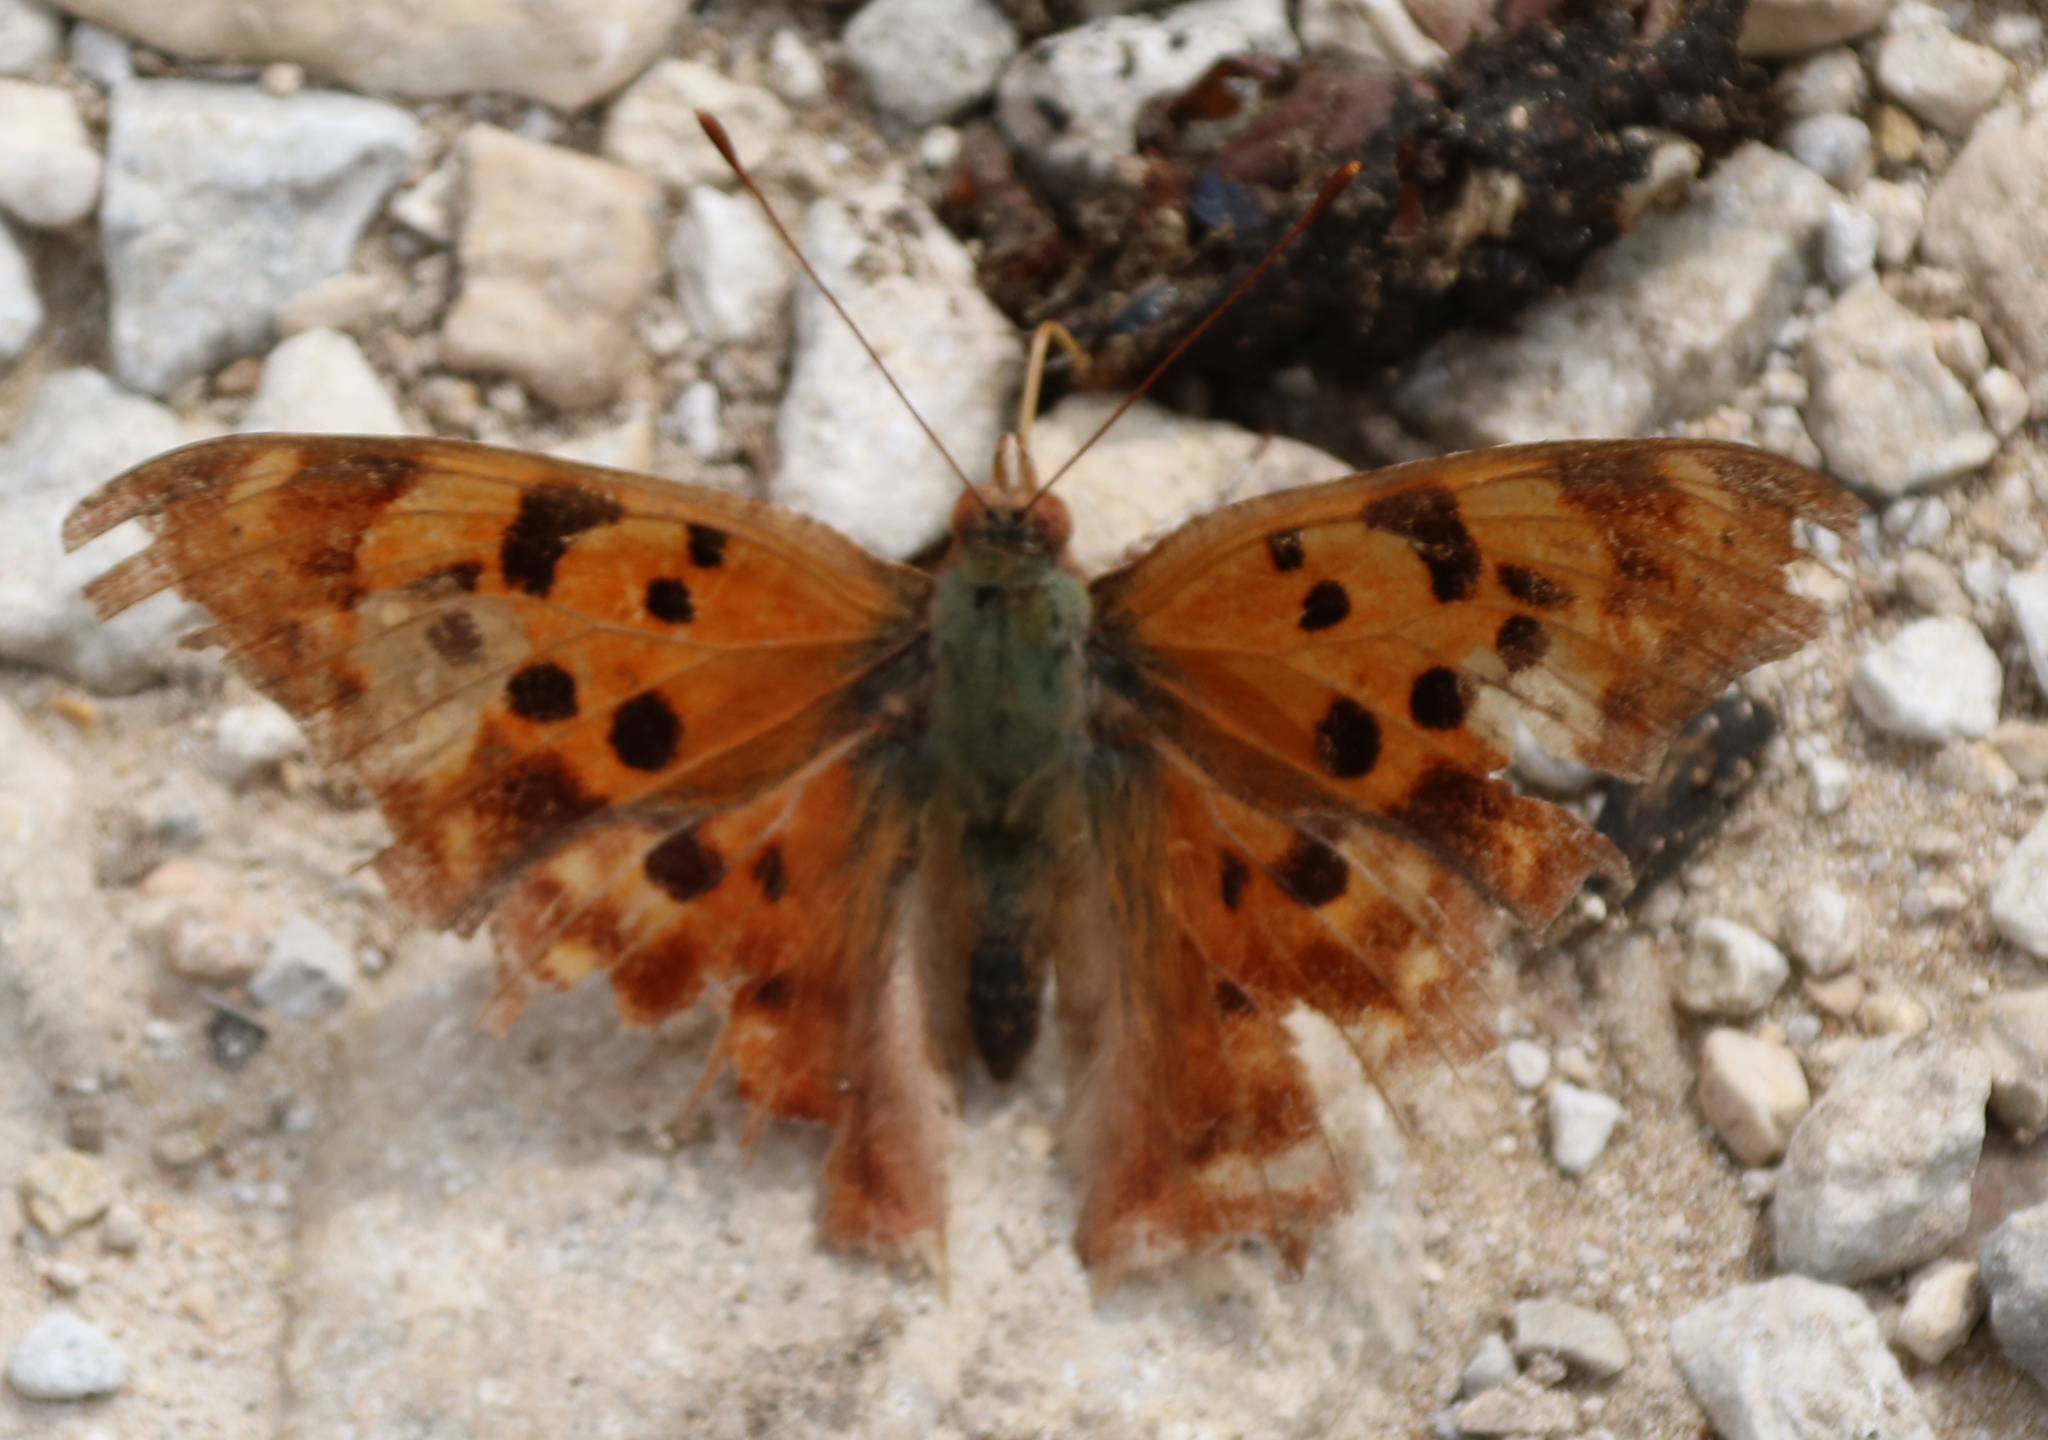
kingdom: Animalia
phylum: Arthropoda
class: Insecta
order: Lepidoptera
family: Nymphalidae
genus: Polygonia
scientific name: Polygonia interrogationis
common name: Question mark
